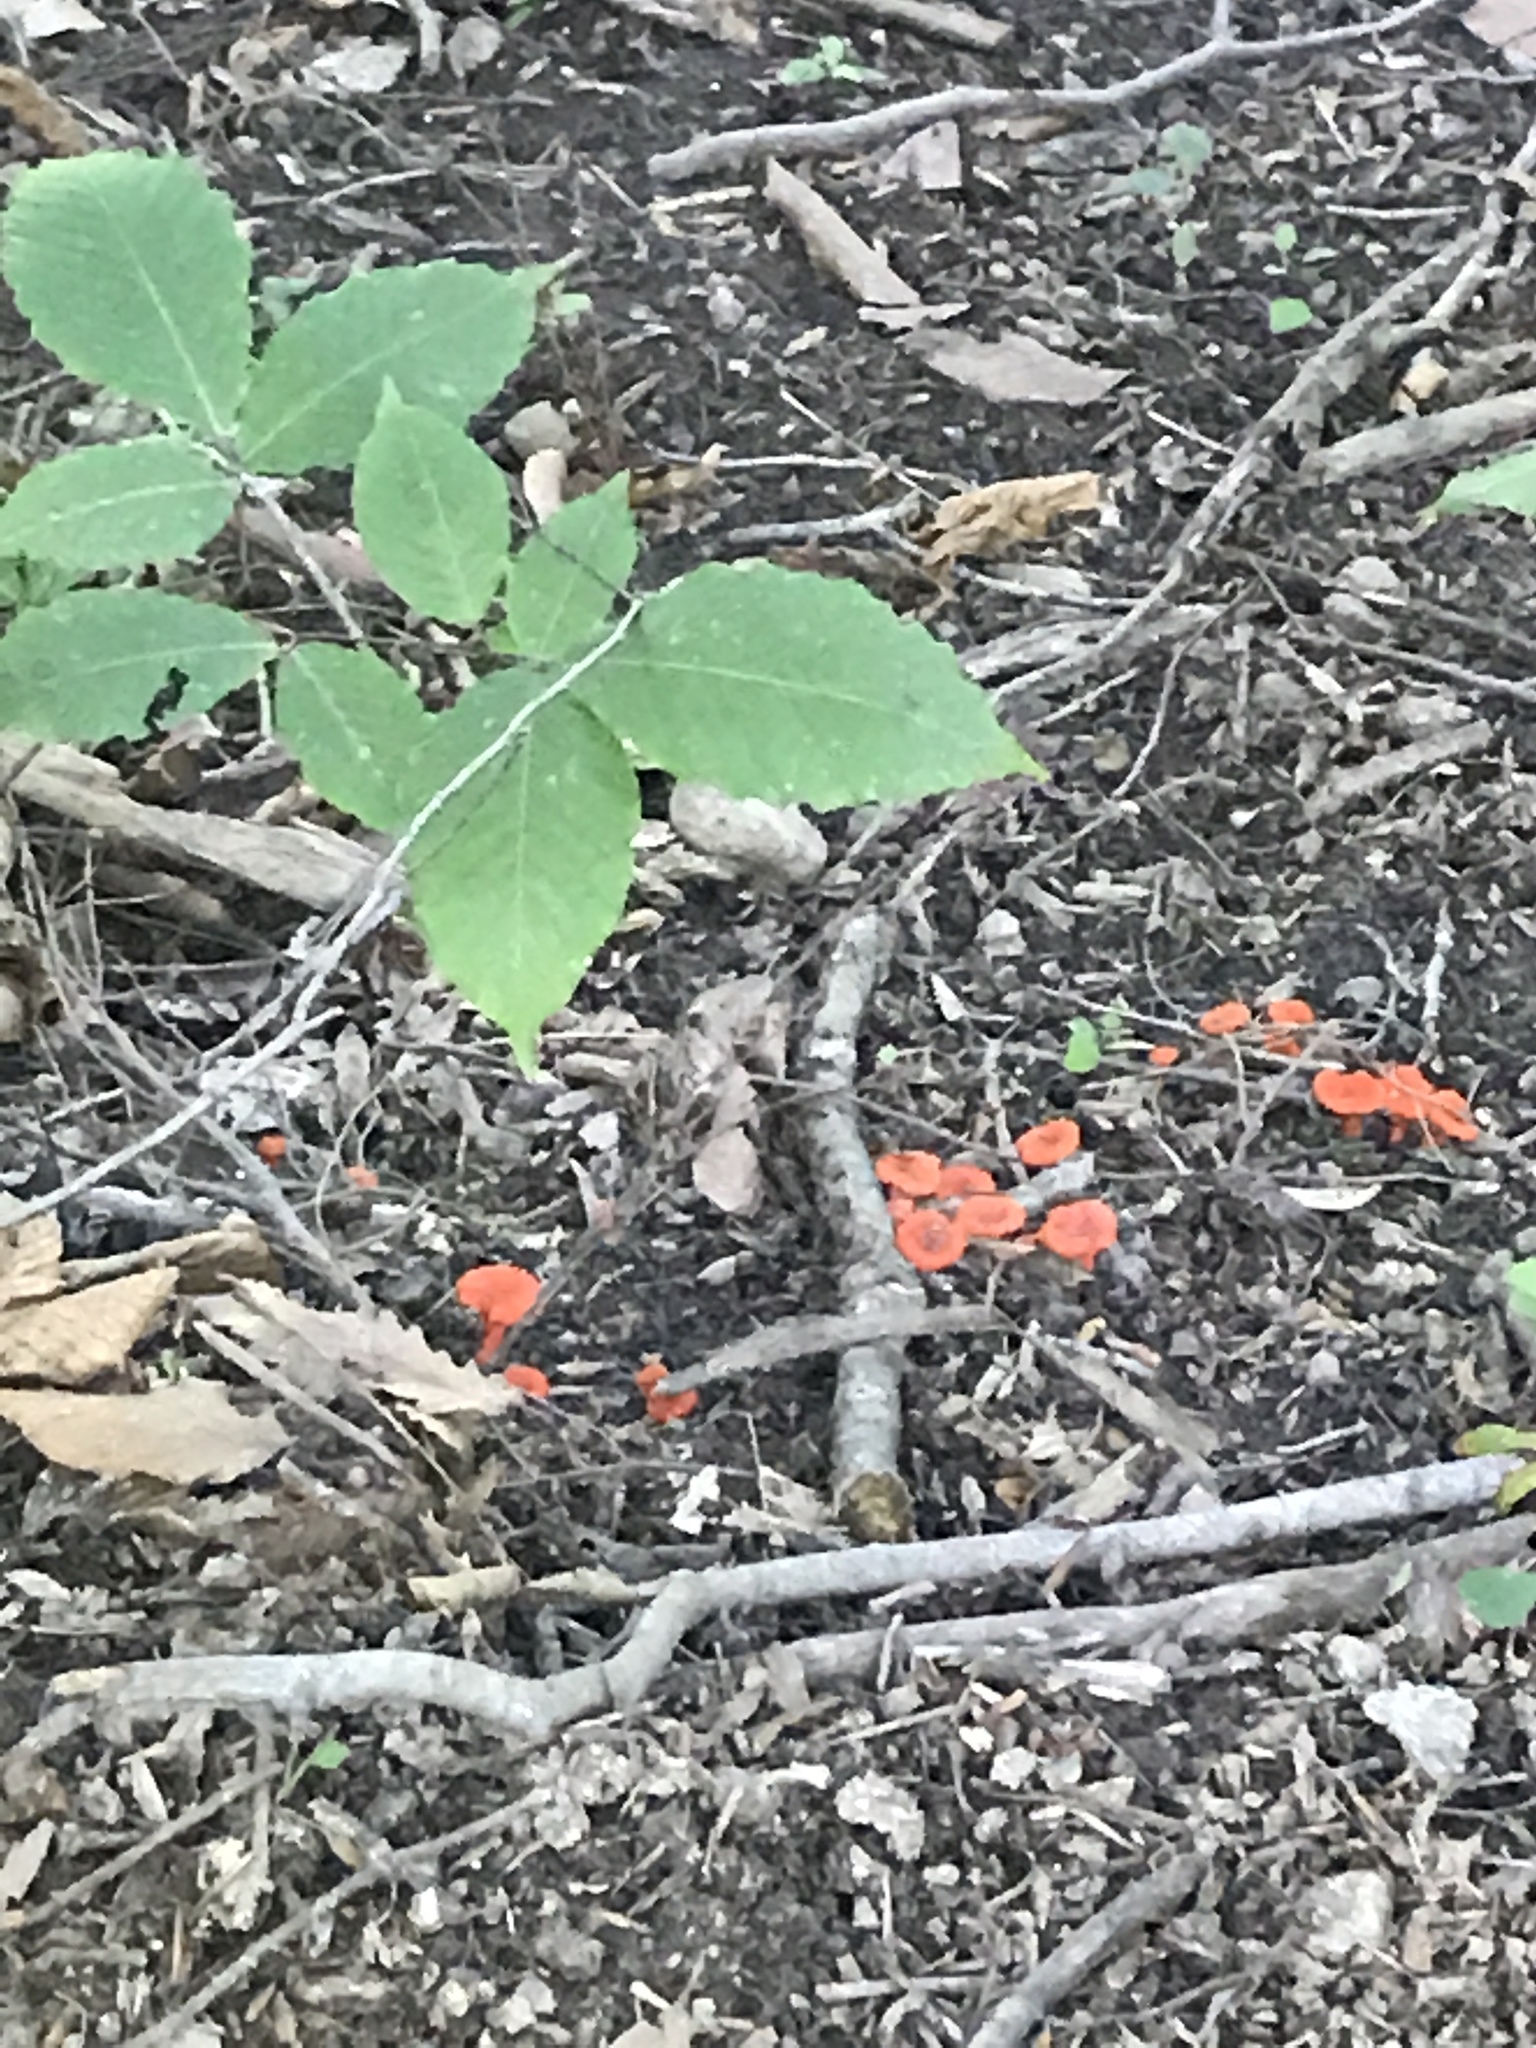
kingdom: Fungi
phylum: Basidiomycota
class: Agaricomycetes
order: Cantharellales
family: Hydnaceae
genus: Cantharellus
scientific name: Cantharellus cinnabarinus
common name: Cinnabar chanterelle
